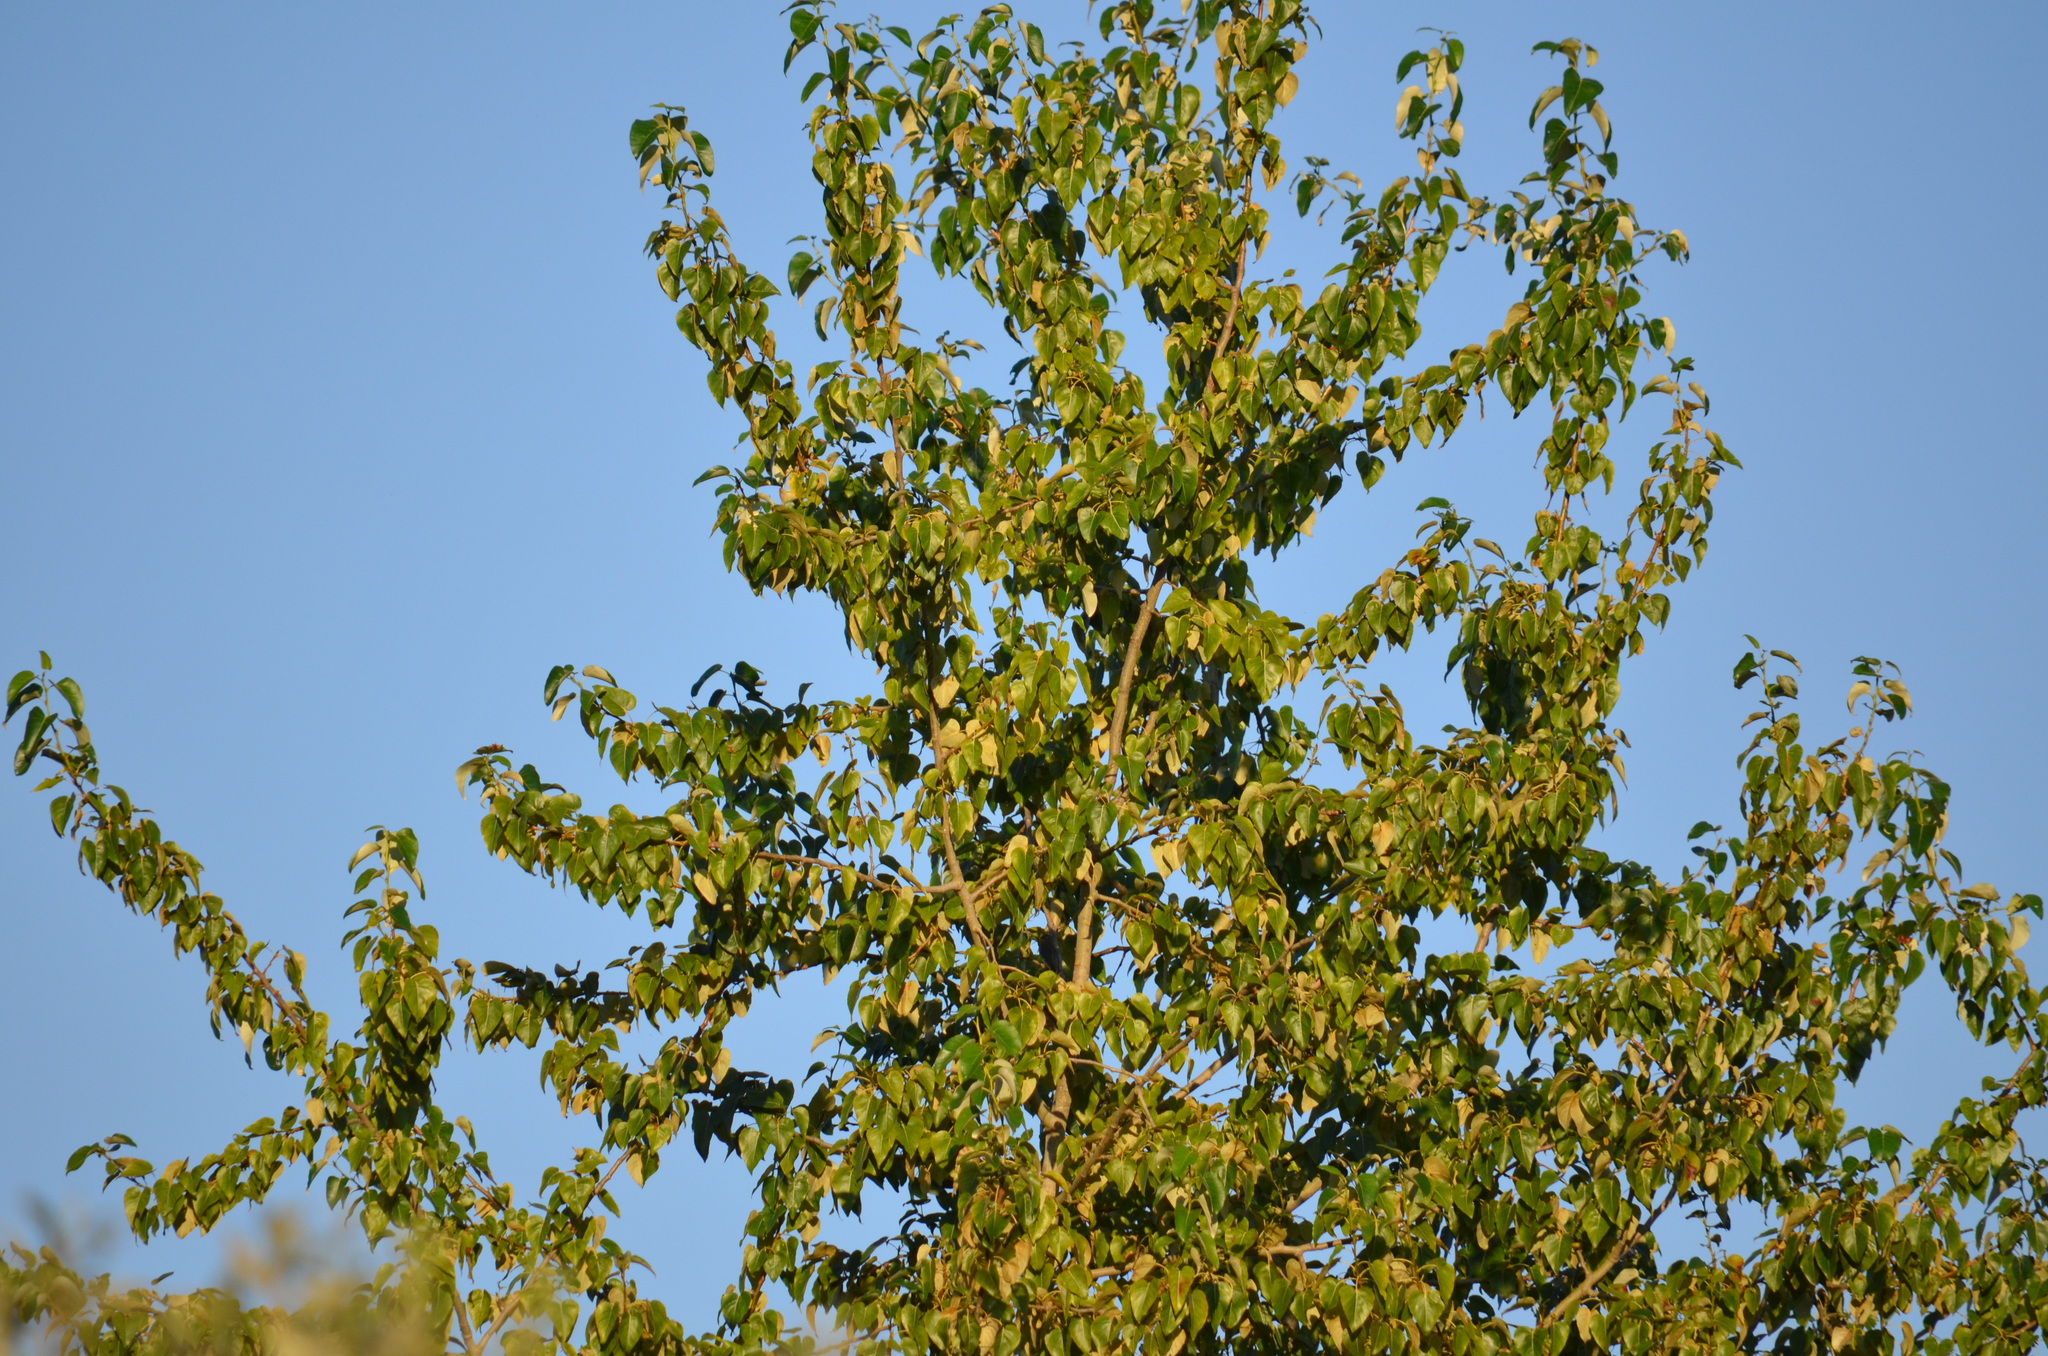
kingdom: Plantae
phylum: Tracheophyta
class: Magnoliopsida
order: Malpighiales
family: Salicaceae
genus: Populus
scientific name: Populus trichocarpa
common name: Black cottonwood
